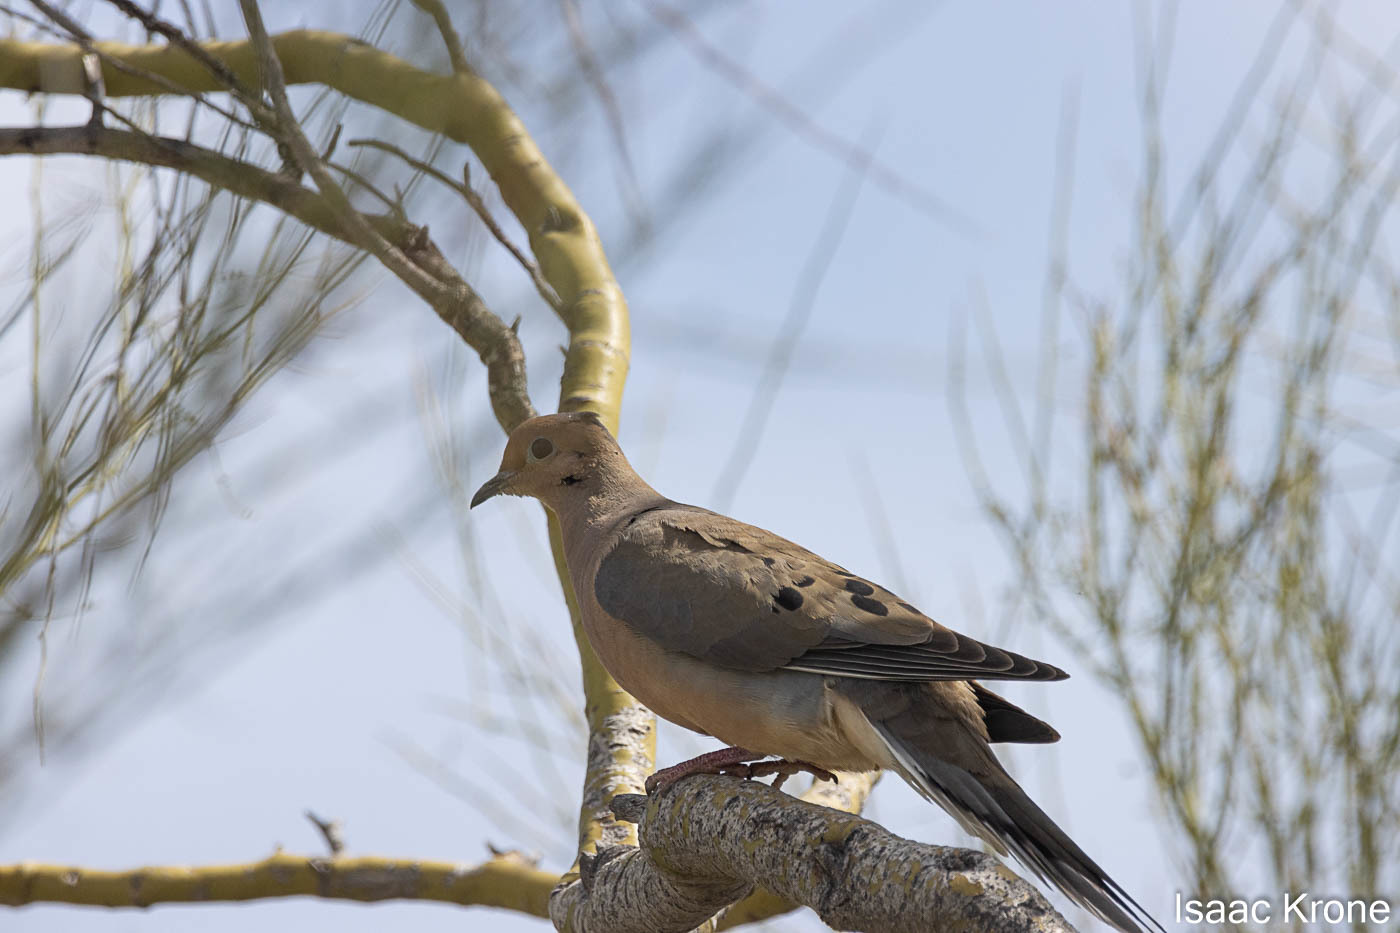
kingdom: Animalia
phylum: Chordata
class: Aves
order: Columbiformes
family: Columbidae
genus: Zenaida
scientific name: Zenaida macroura
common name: Mourning dove
